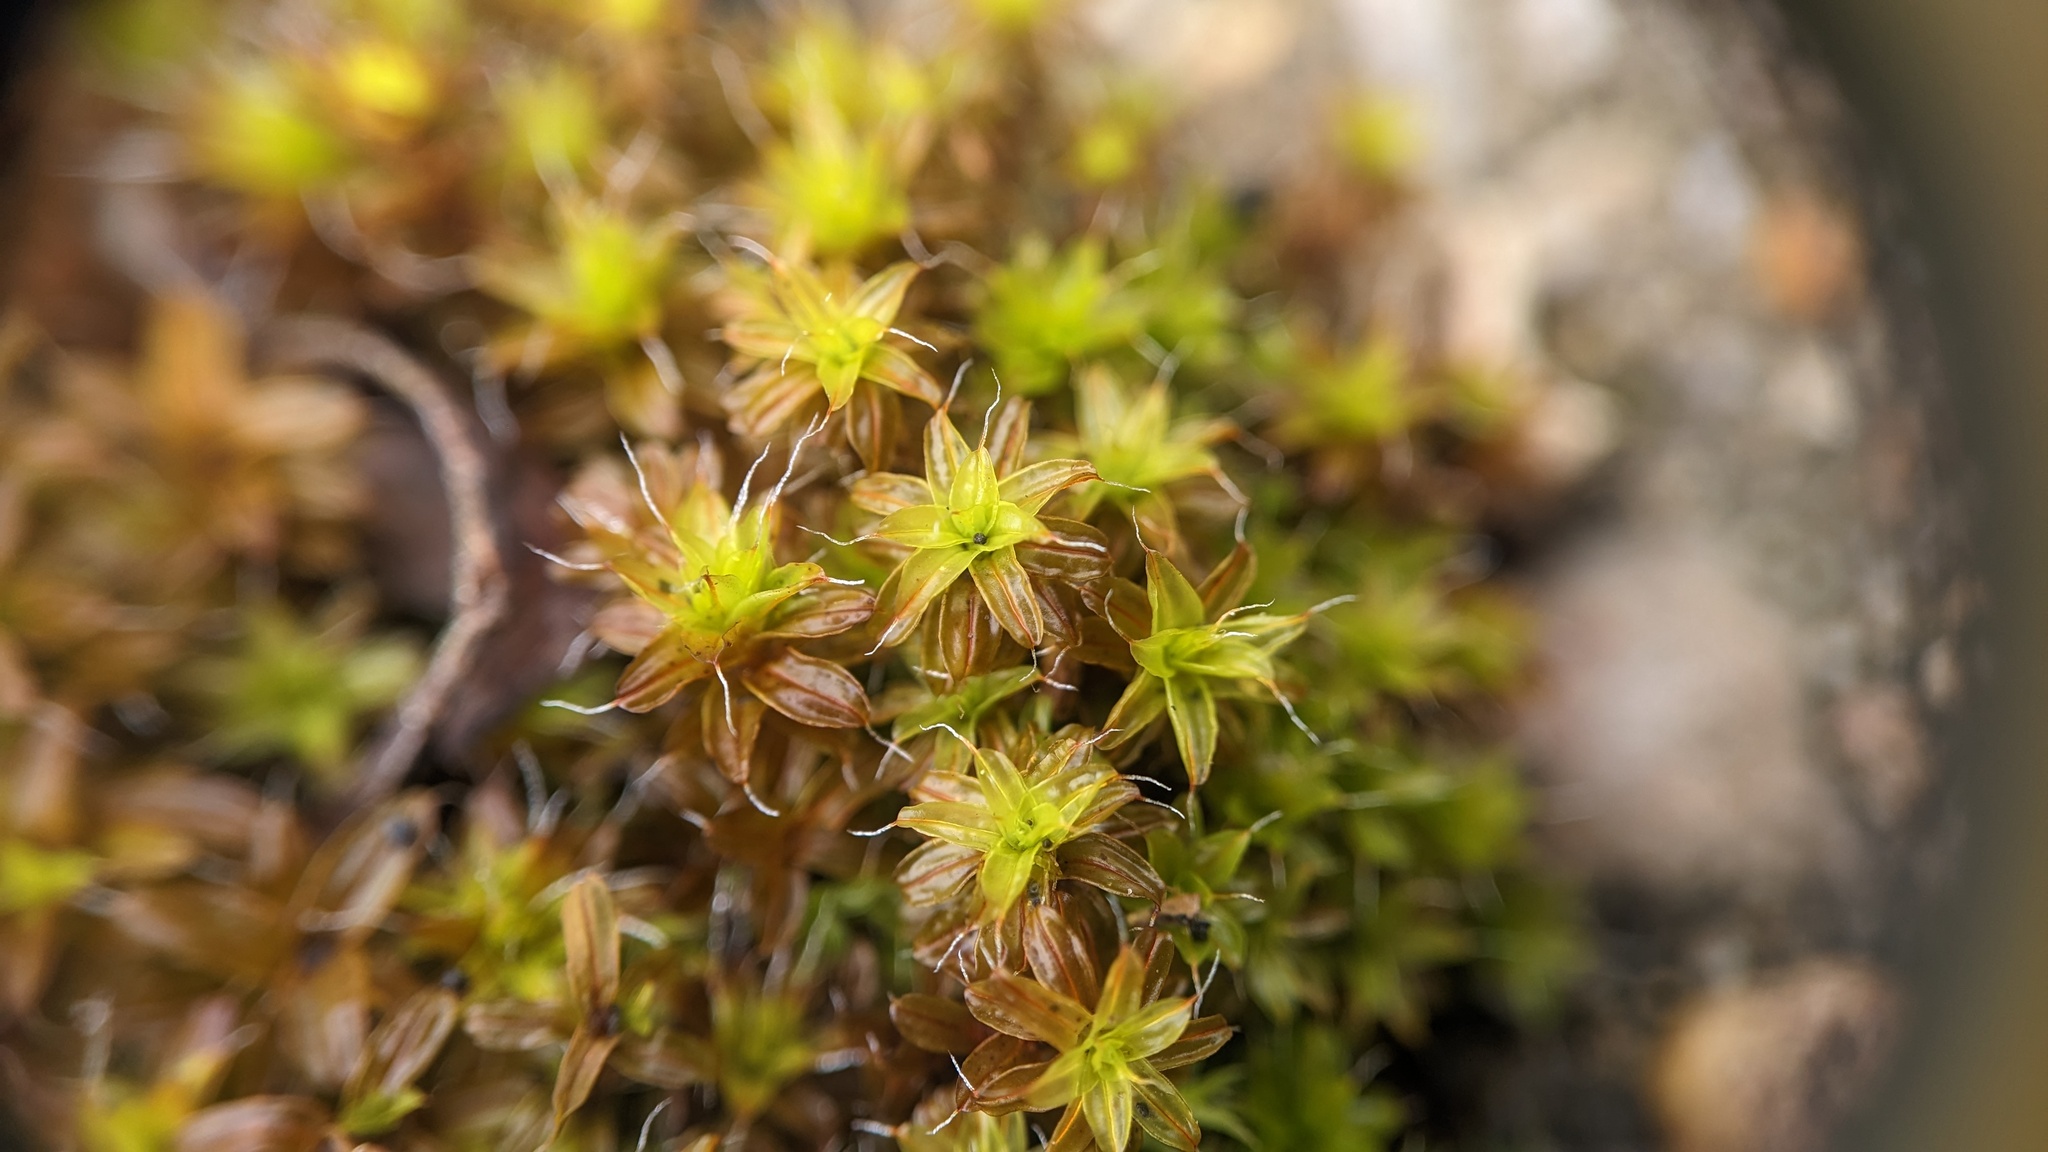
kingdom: Plantae
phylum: Bryophyta
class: Bryopsida
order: Pottiales
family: Pottiaceae
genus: Syntrichia
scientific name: Syntrichia ruralis
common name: Sidewalk screw moss
